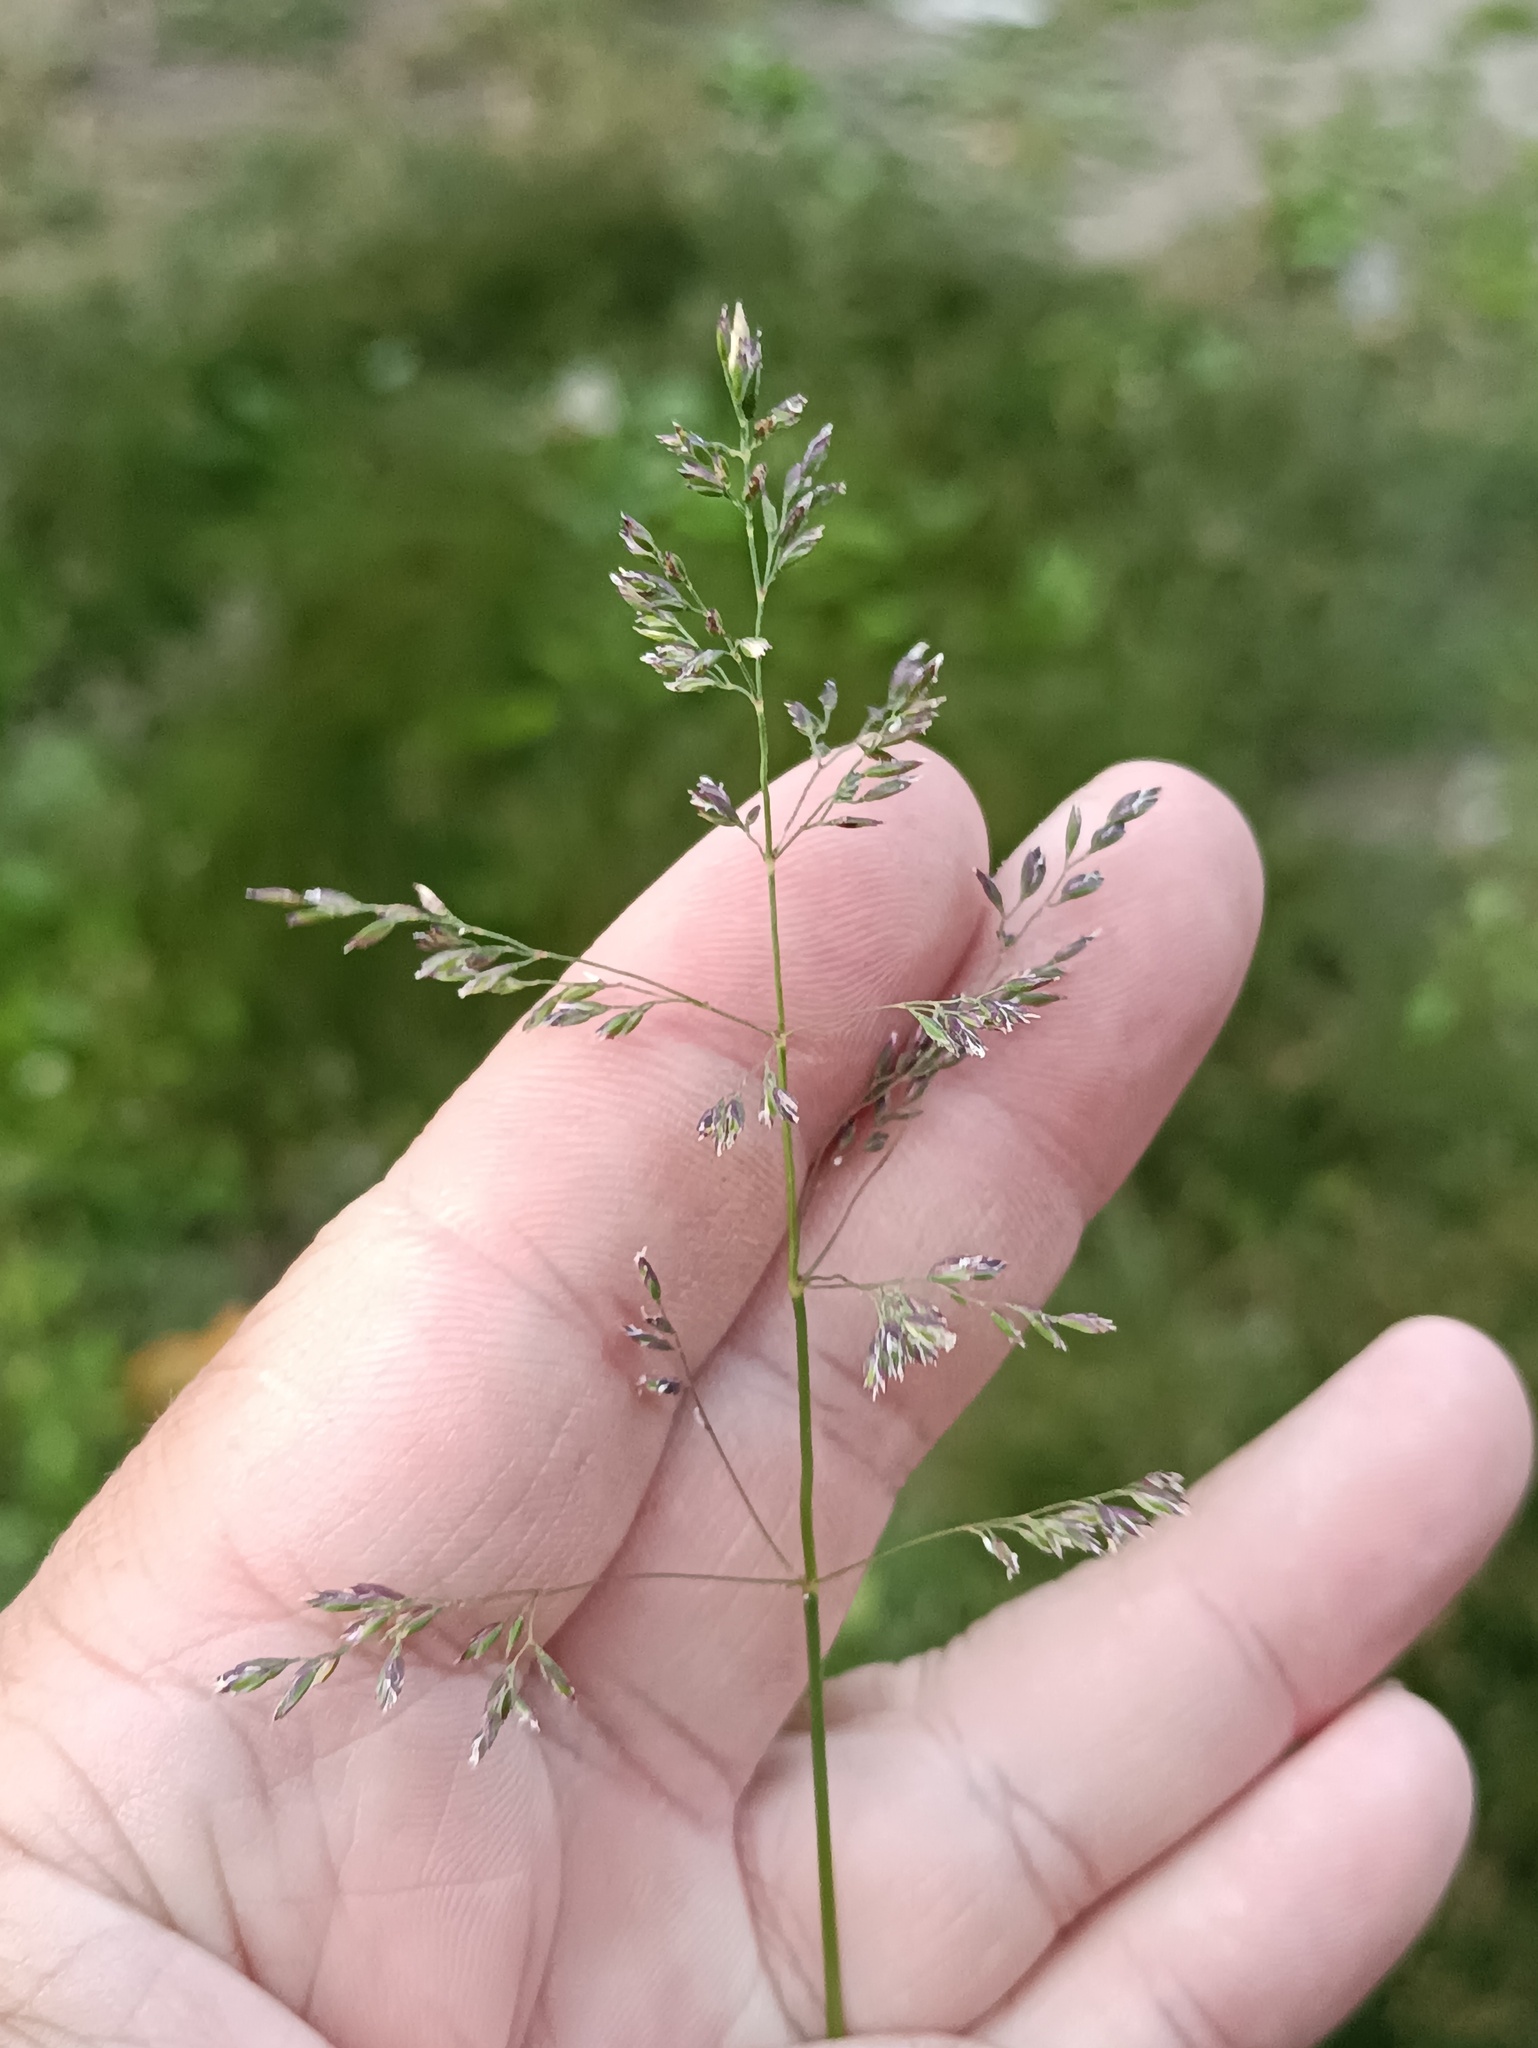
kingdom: Plantae
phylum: Tracheophyta
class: Liliopsida
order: Poales
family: Poaceae
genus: Poa
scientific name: Poa pratensis
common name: Kentucky bluegrass
